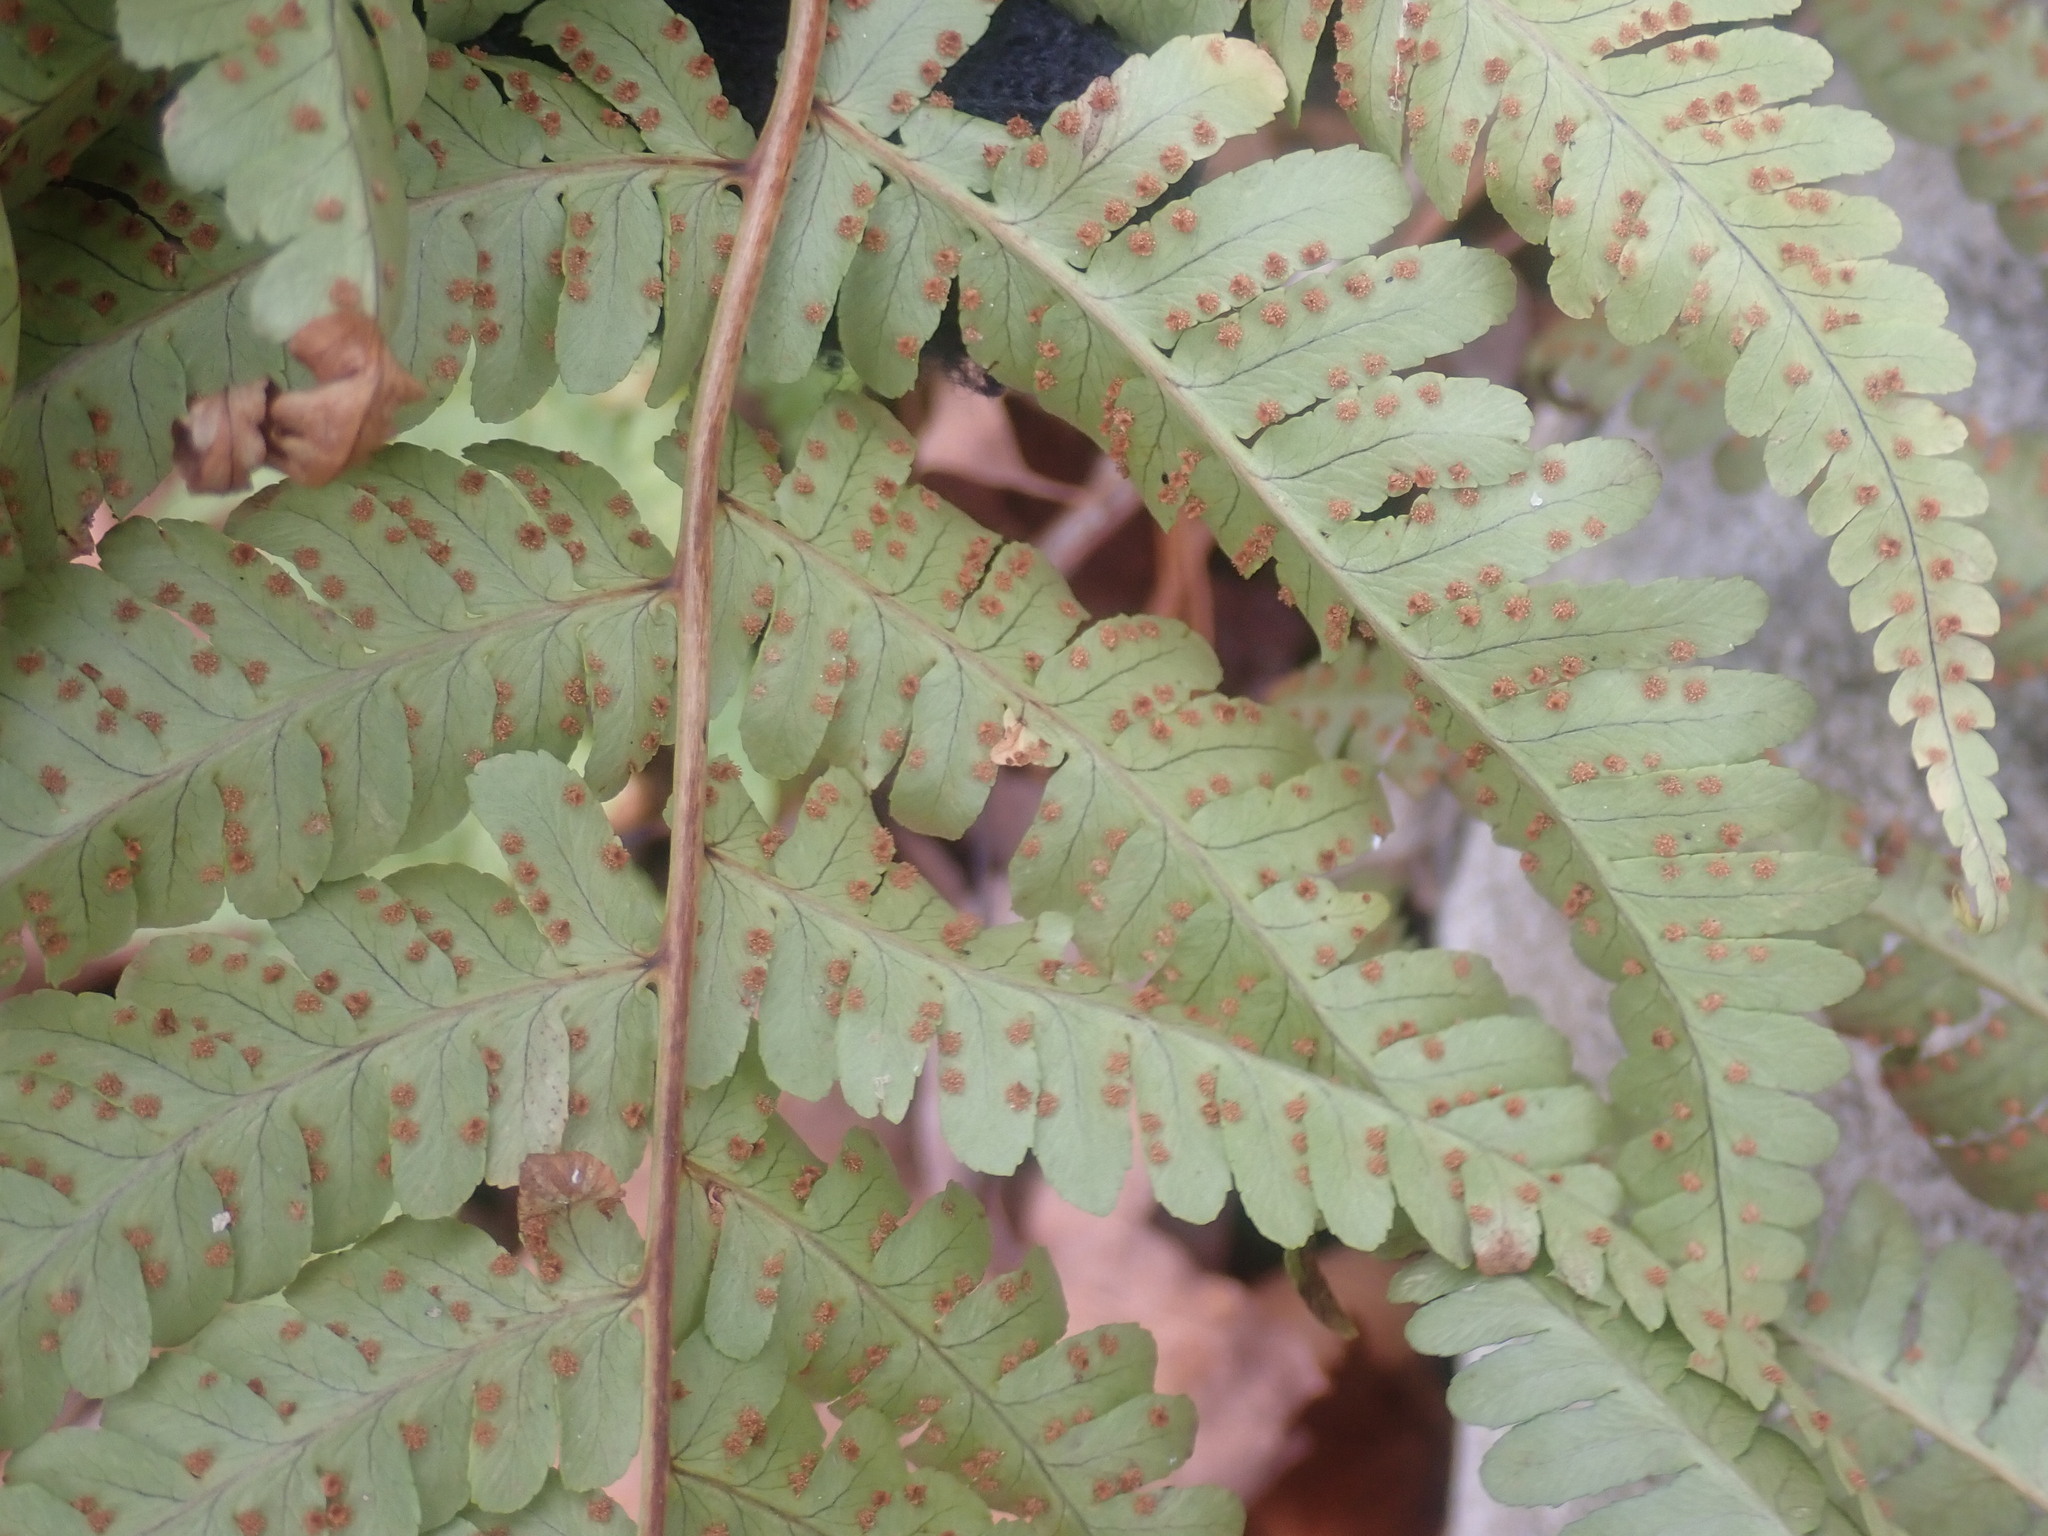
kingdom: Plantae
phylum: Tracheophyta
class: Polypodiopsida
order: Polypodiales
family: Dryopteridaceae
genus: Dryopteris
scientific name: Dryopteris marginalis
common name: Marginal wood fern
